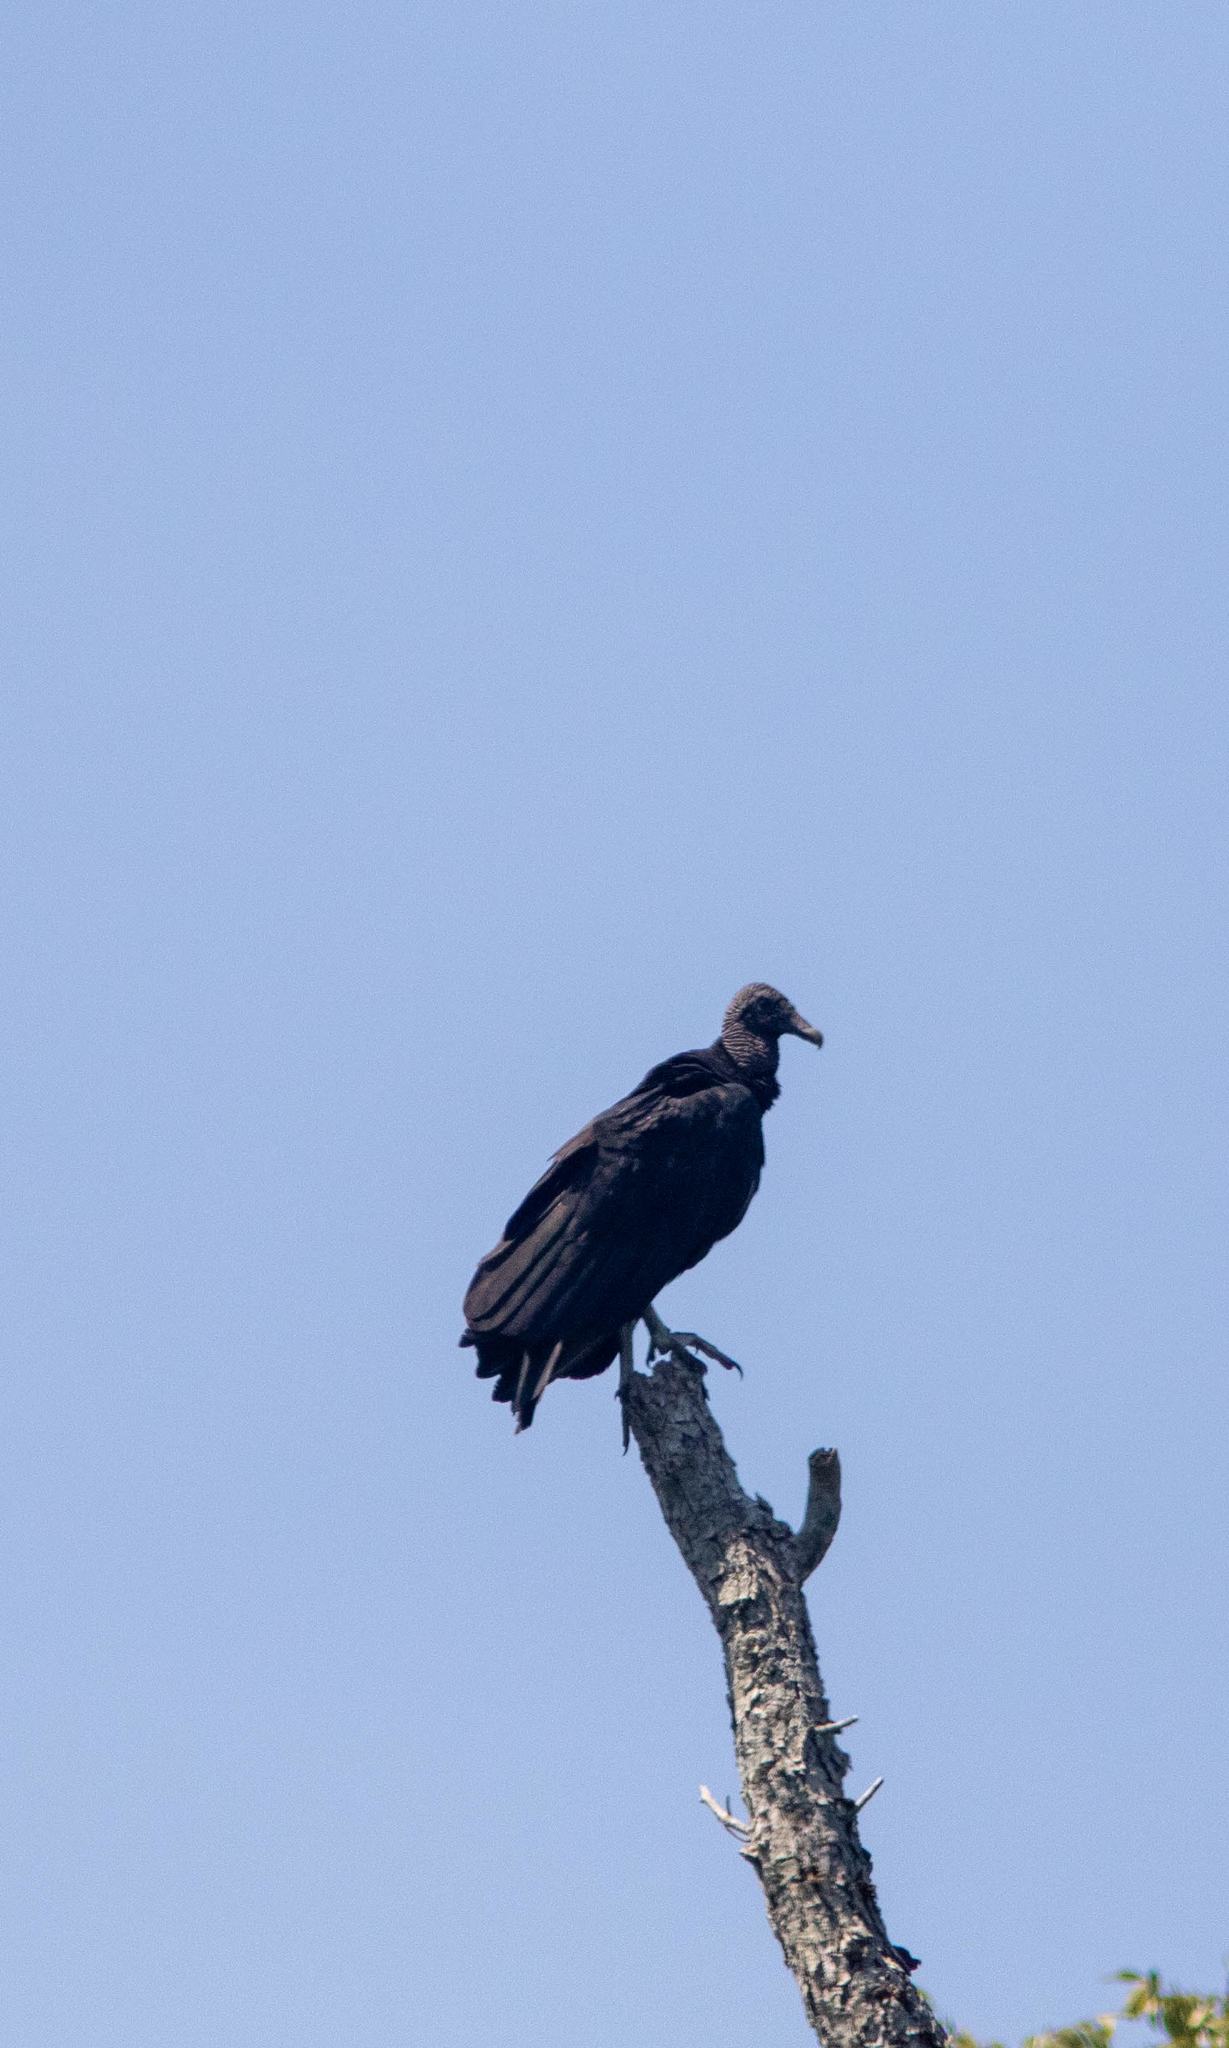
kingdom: Animalia
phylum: Chordata
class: Aves
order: Accipitriformes
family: Cathartidae
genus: Coragyps
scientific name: Coragyps atratus
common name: Black vulture
